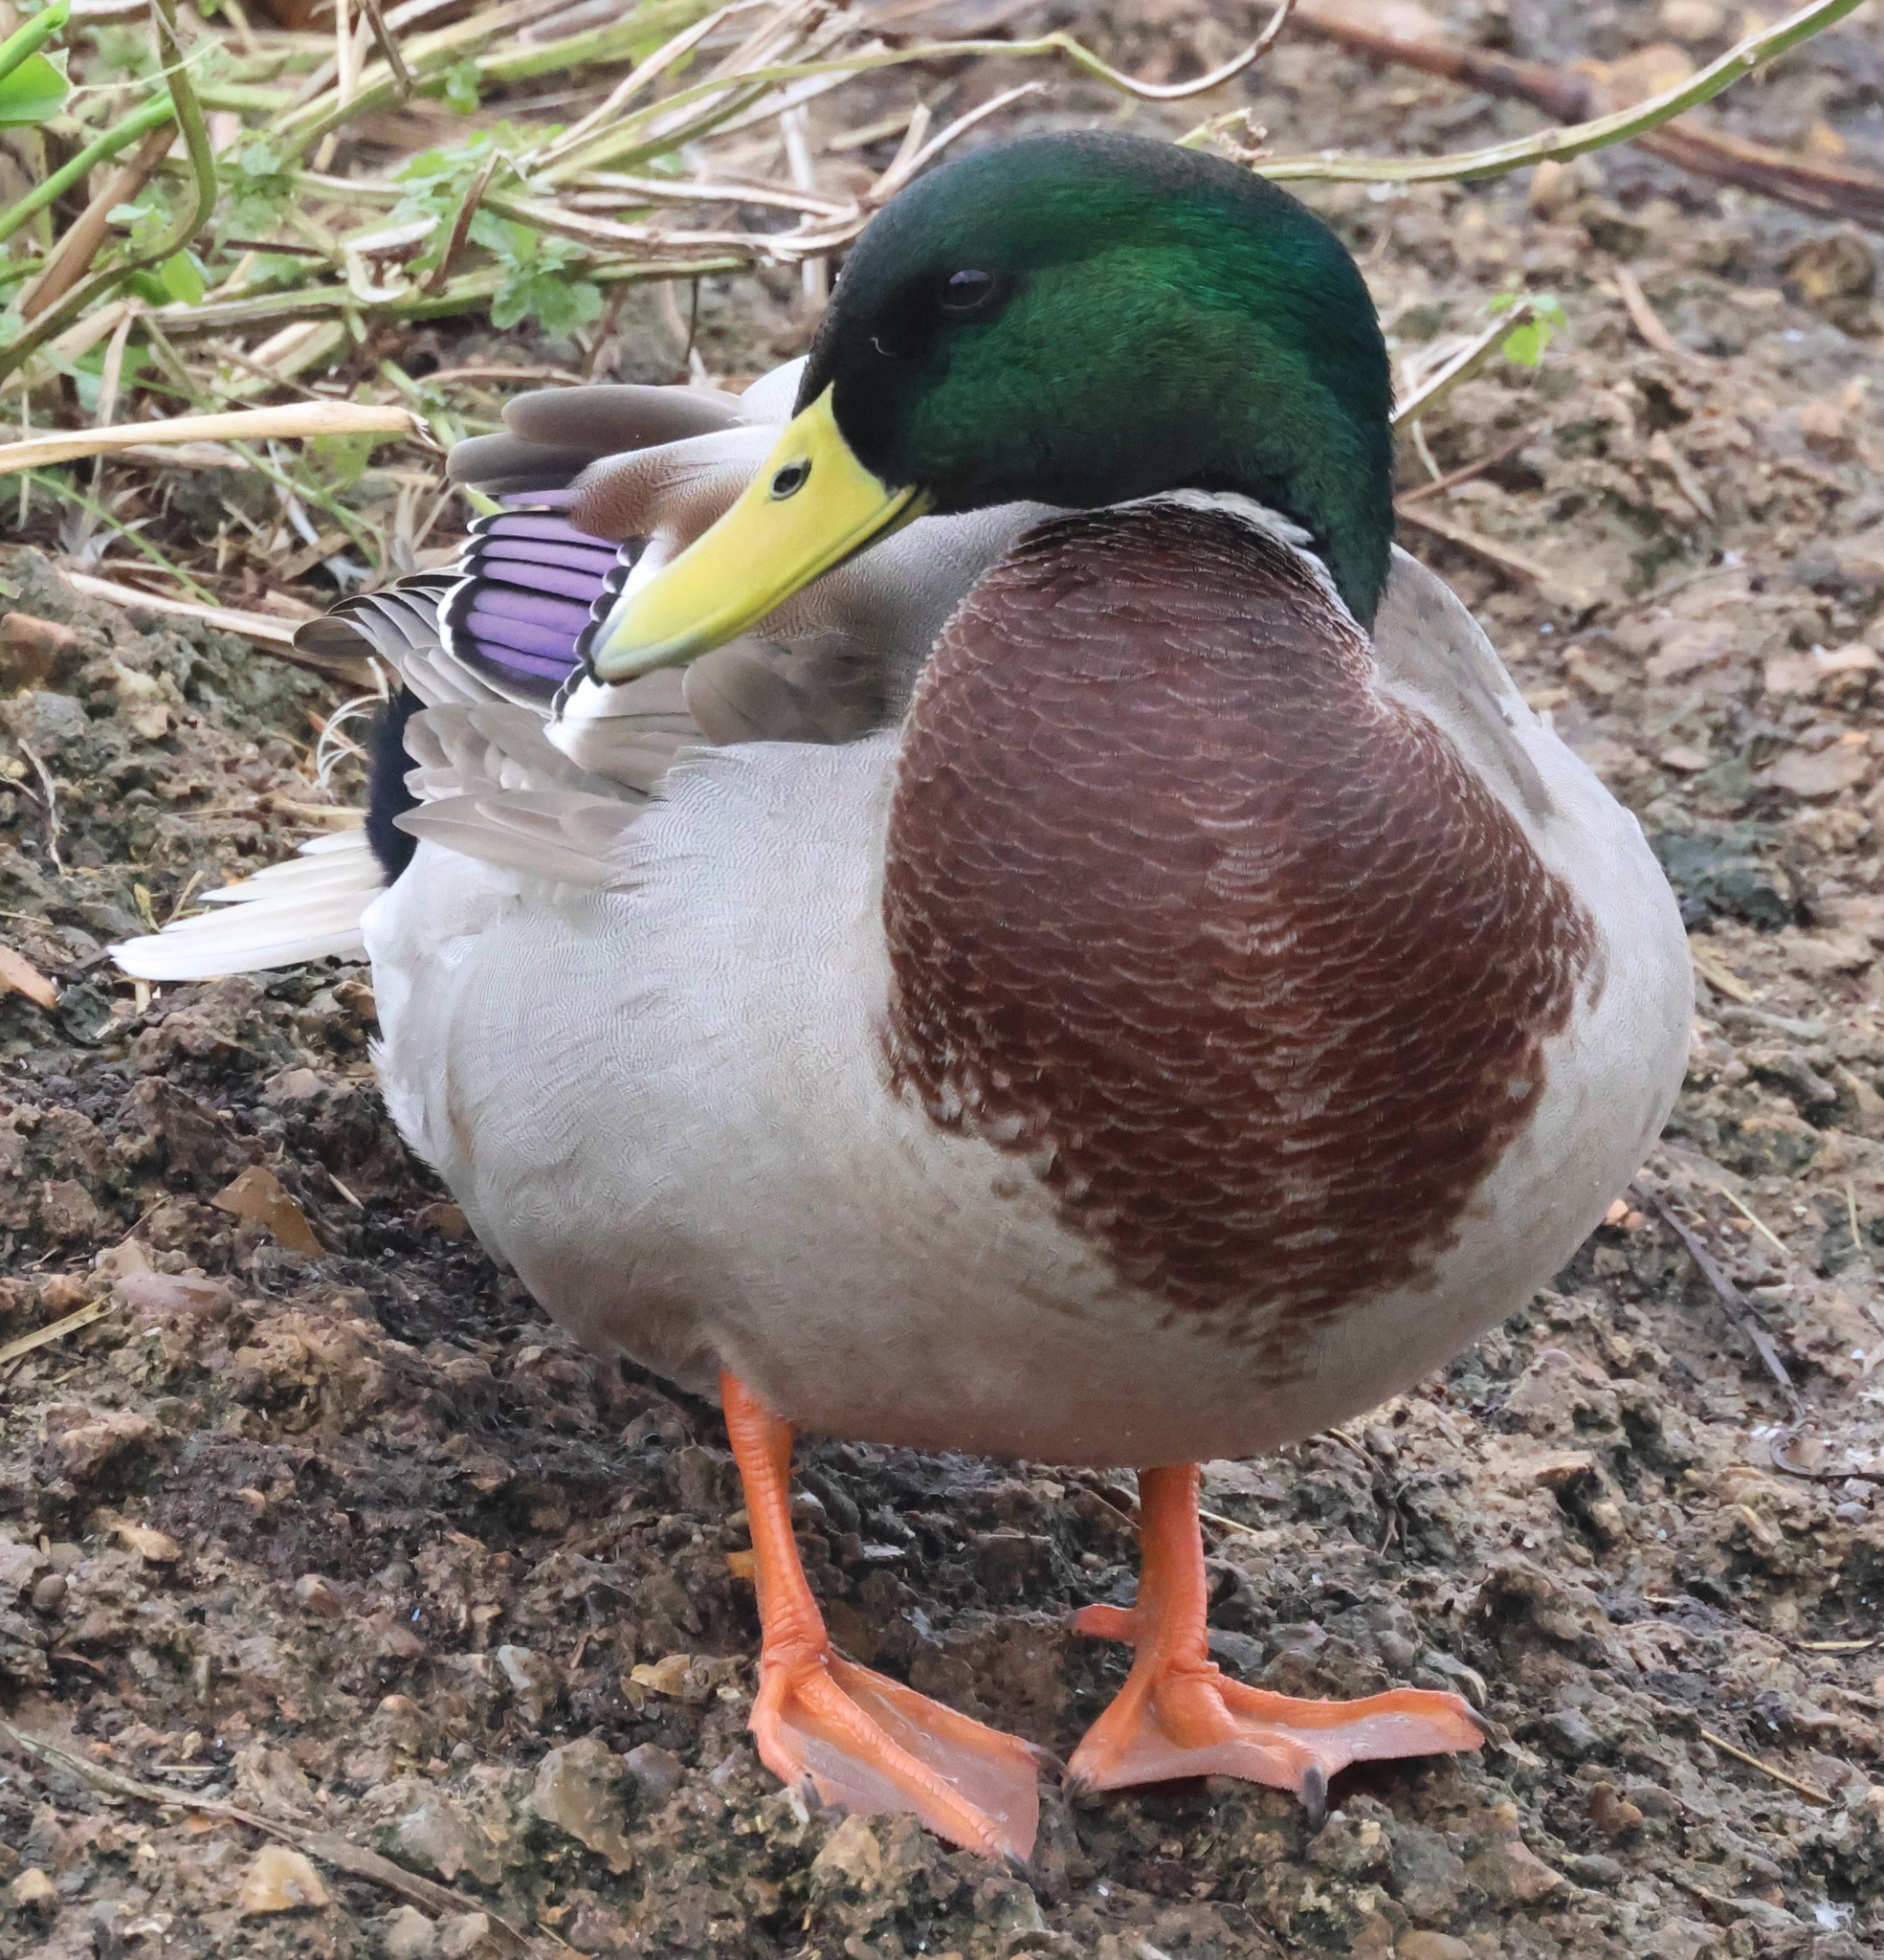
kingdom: Animalia
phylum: Chordata
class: Aves
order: Anseriformes
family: Anatidae
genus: Anas
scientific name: Anas platyrhynchos
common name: Mallard
